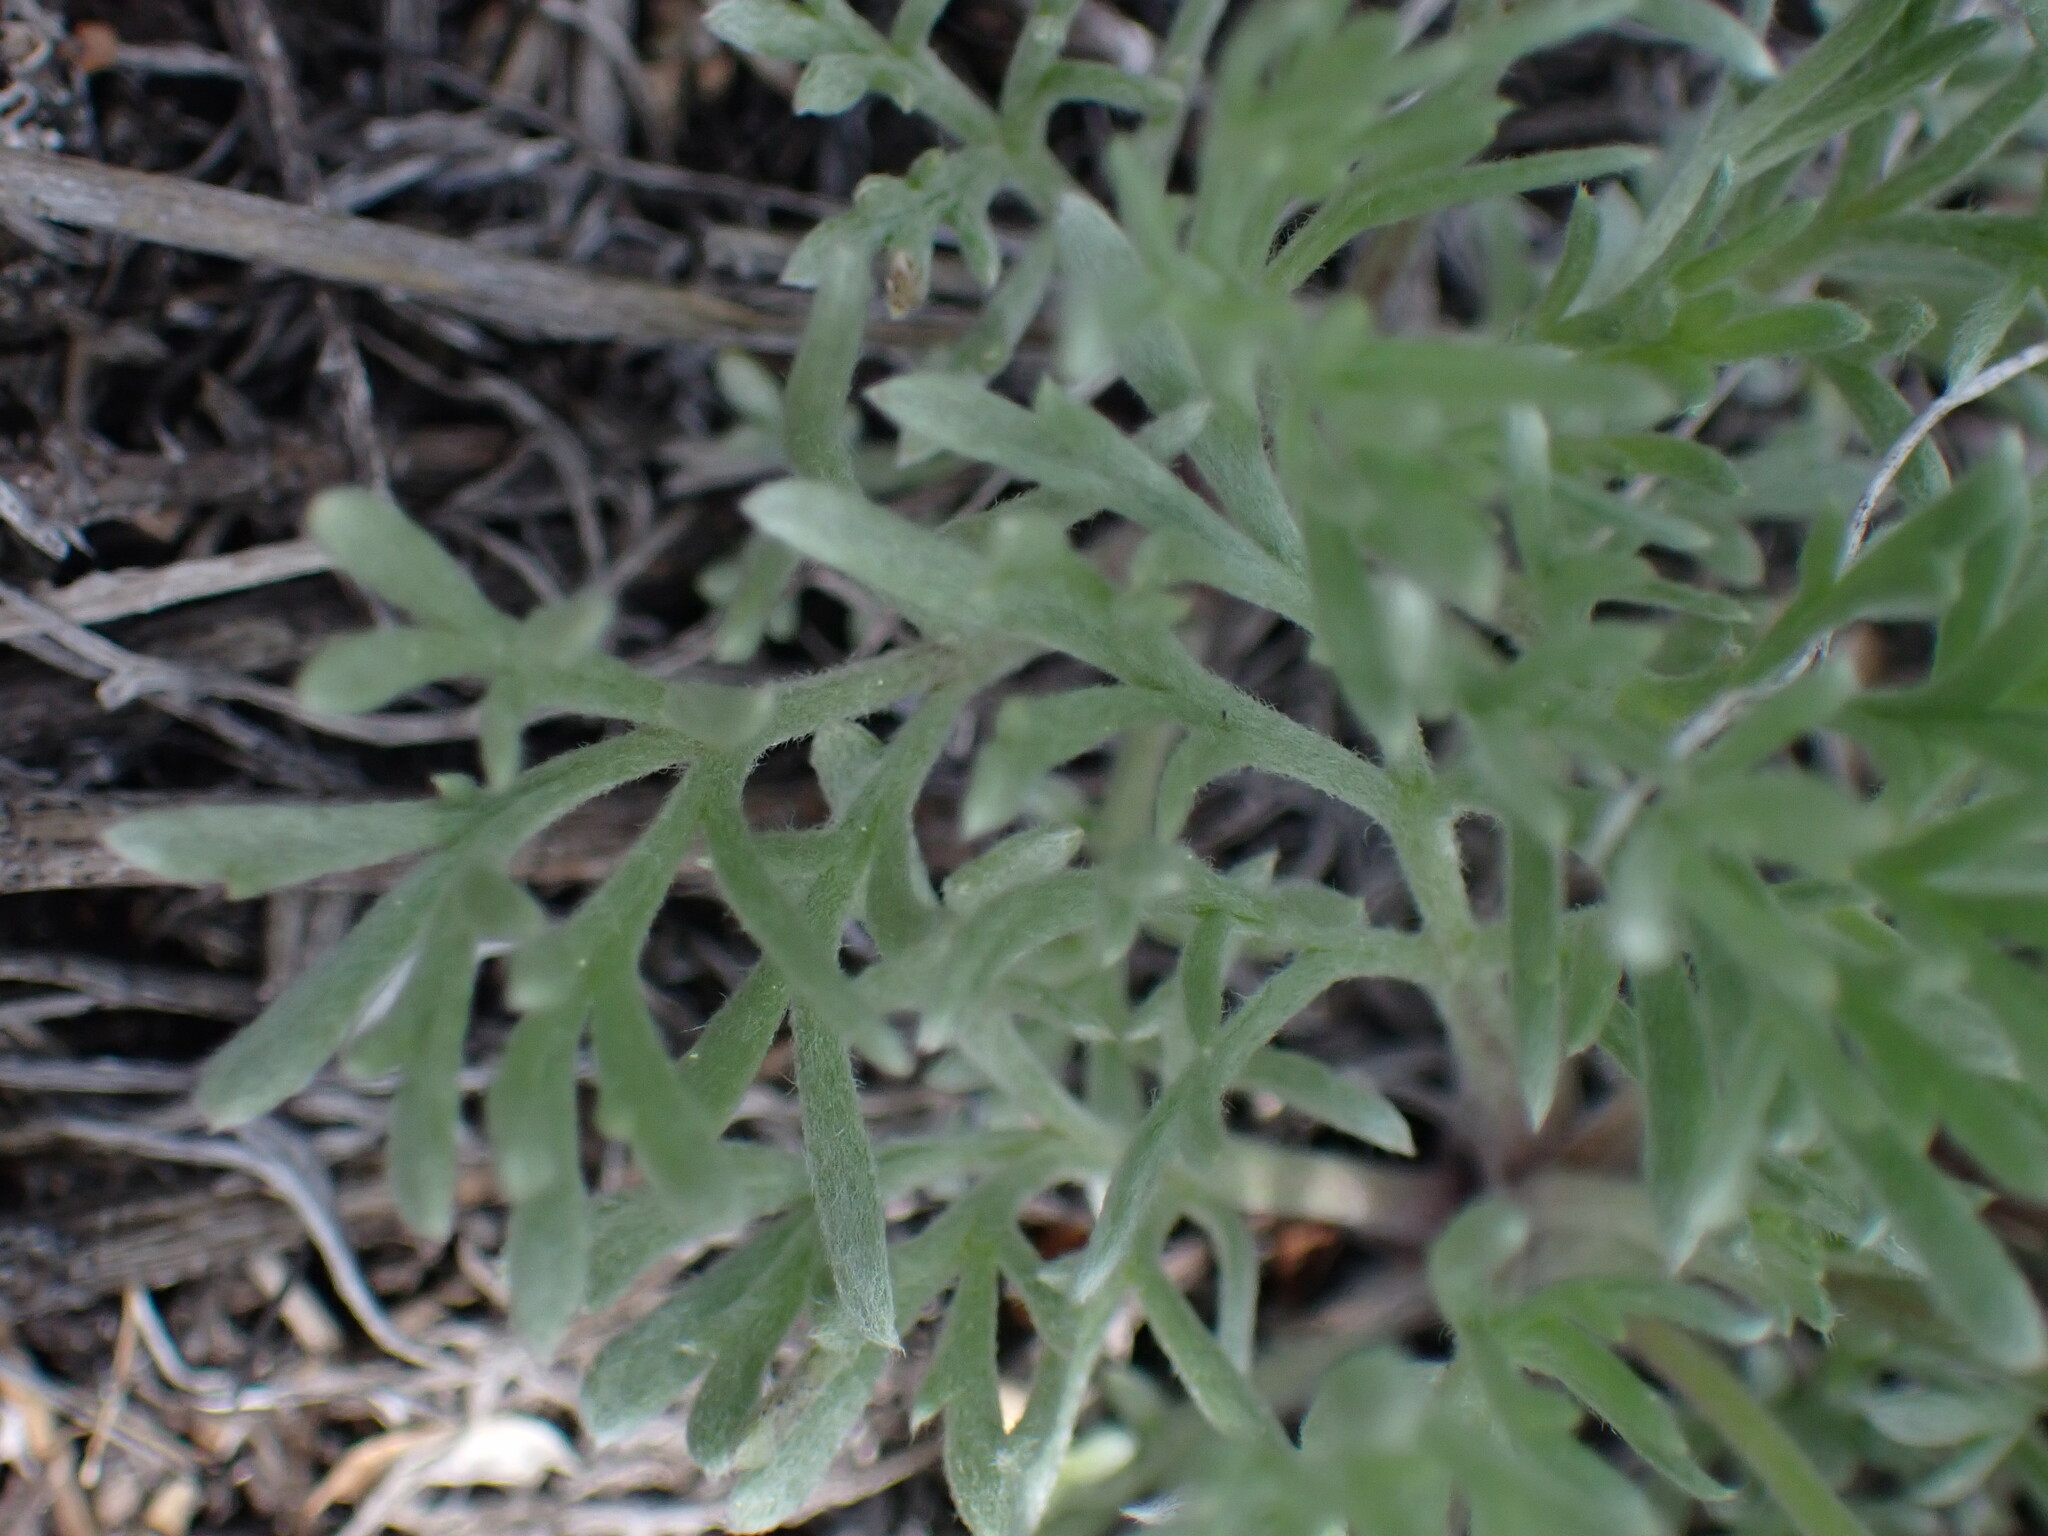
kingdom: Plantae
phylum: Tracheophyta
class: Magnoliopsida
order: Asterales
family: Asteraceae
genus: Erigeron
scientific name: Erigeron compositus
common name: Dwarf mountain fleabane
